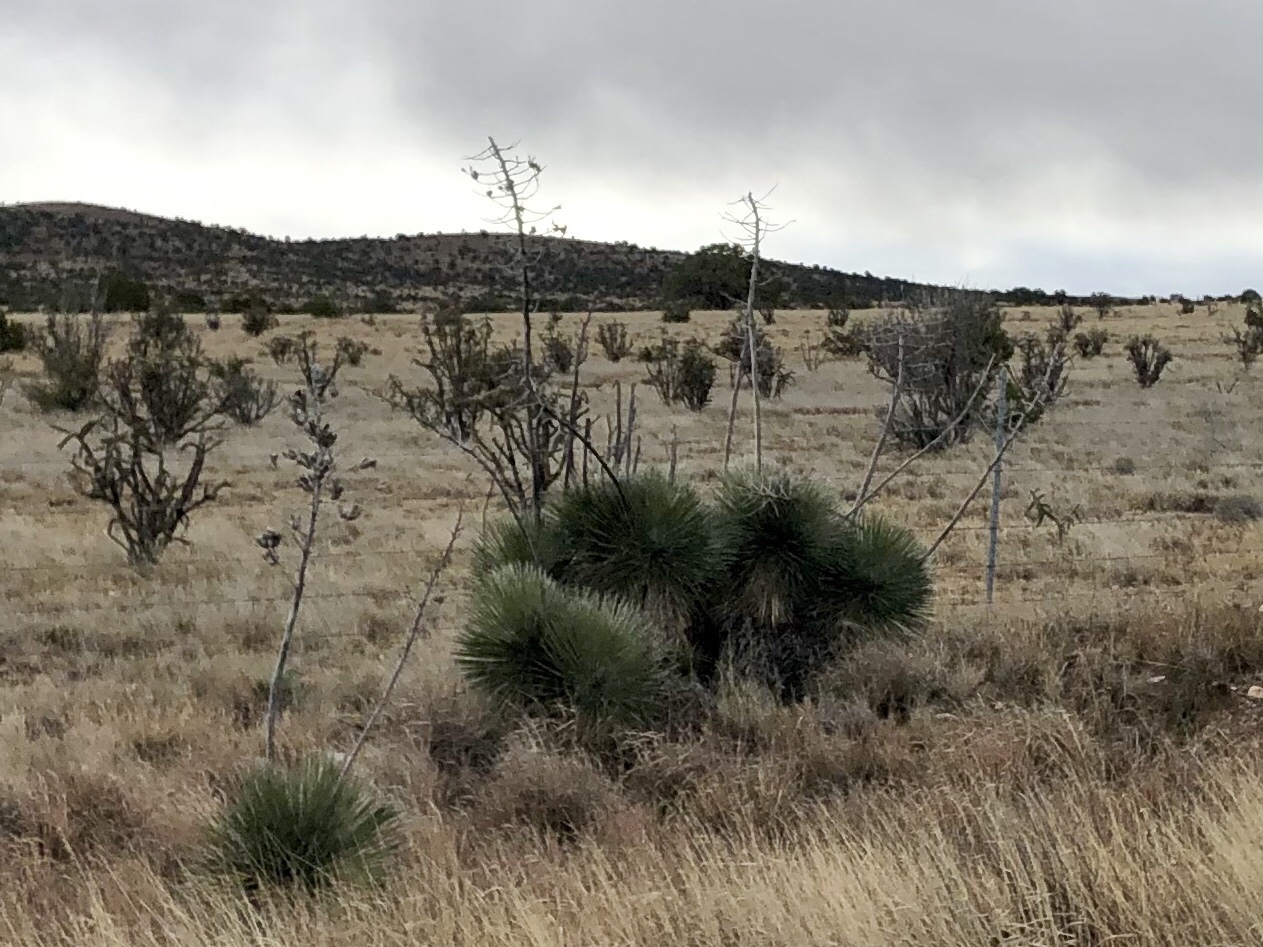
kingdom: Plantae
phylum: Tracheophyta
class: Liliopsida
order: Asparagales
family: Asparagaceae
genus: Yucca
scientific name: Yucca elata
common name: Palmella
